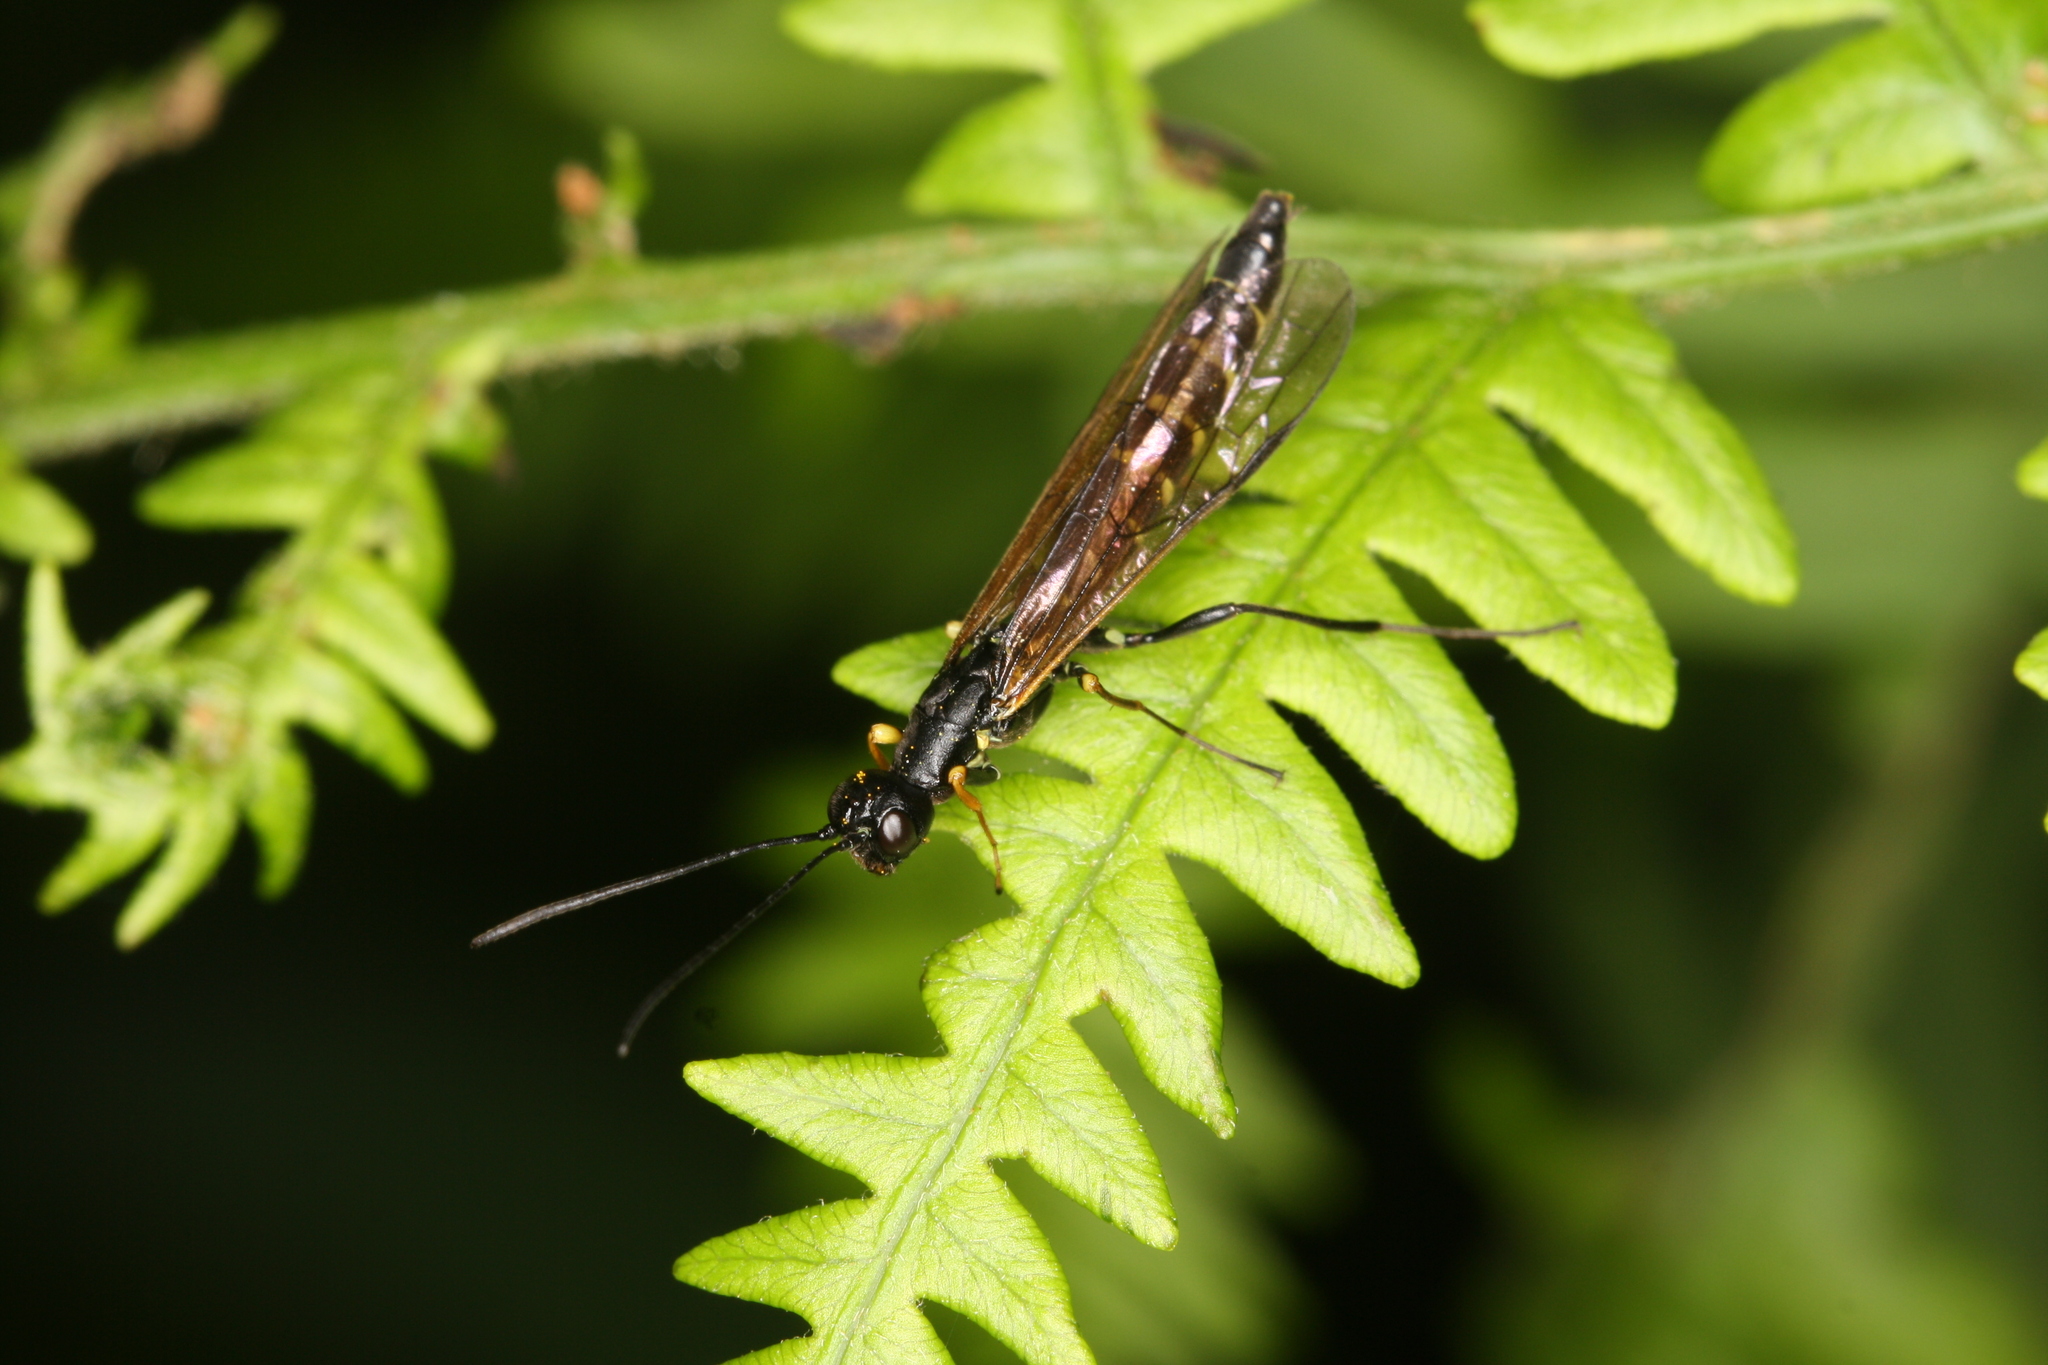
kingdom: Animalia
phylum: Arthropoda
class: Insecta
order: Hymenoptera
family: Cephidae
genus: Calameuta
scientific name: Calameuta filiformis
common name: Reed stem borer
